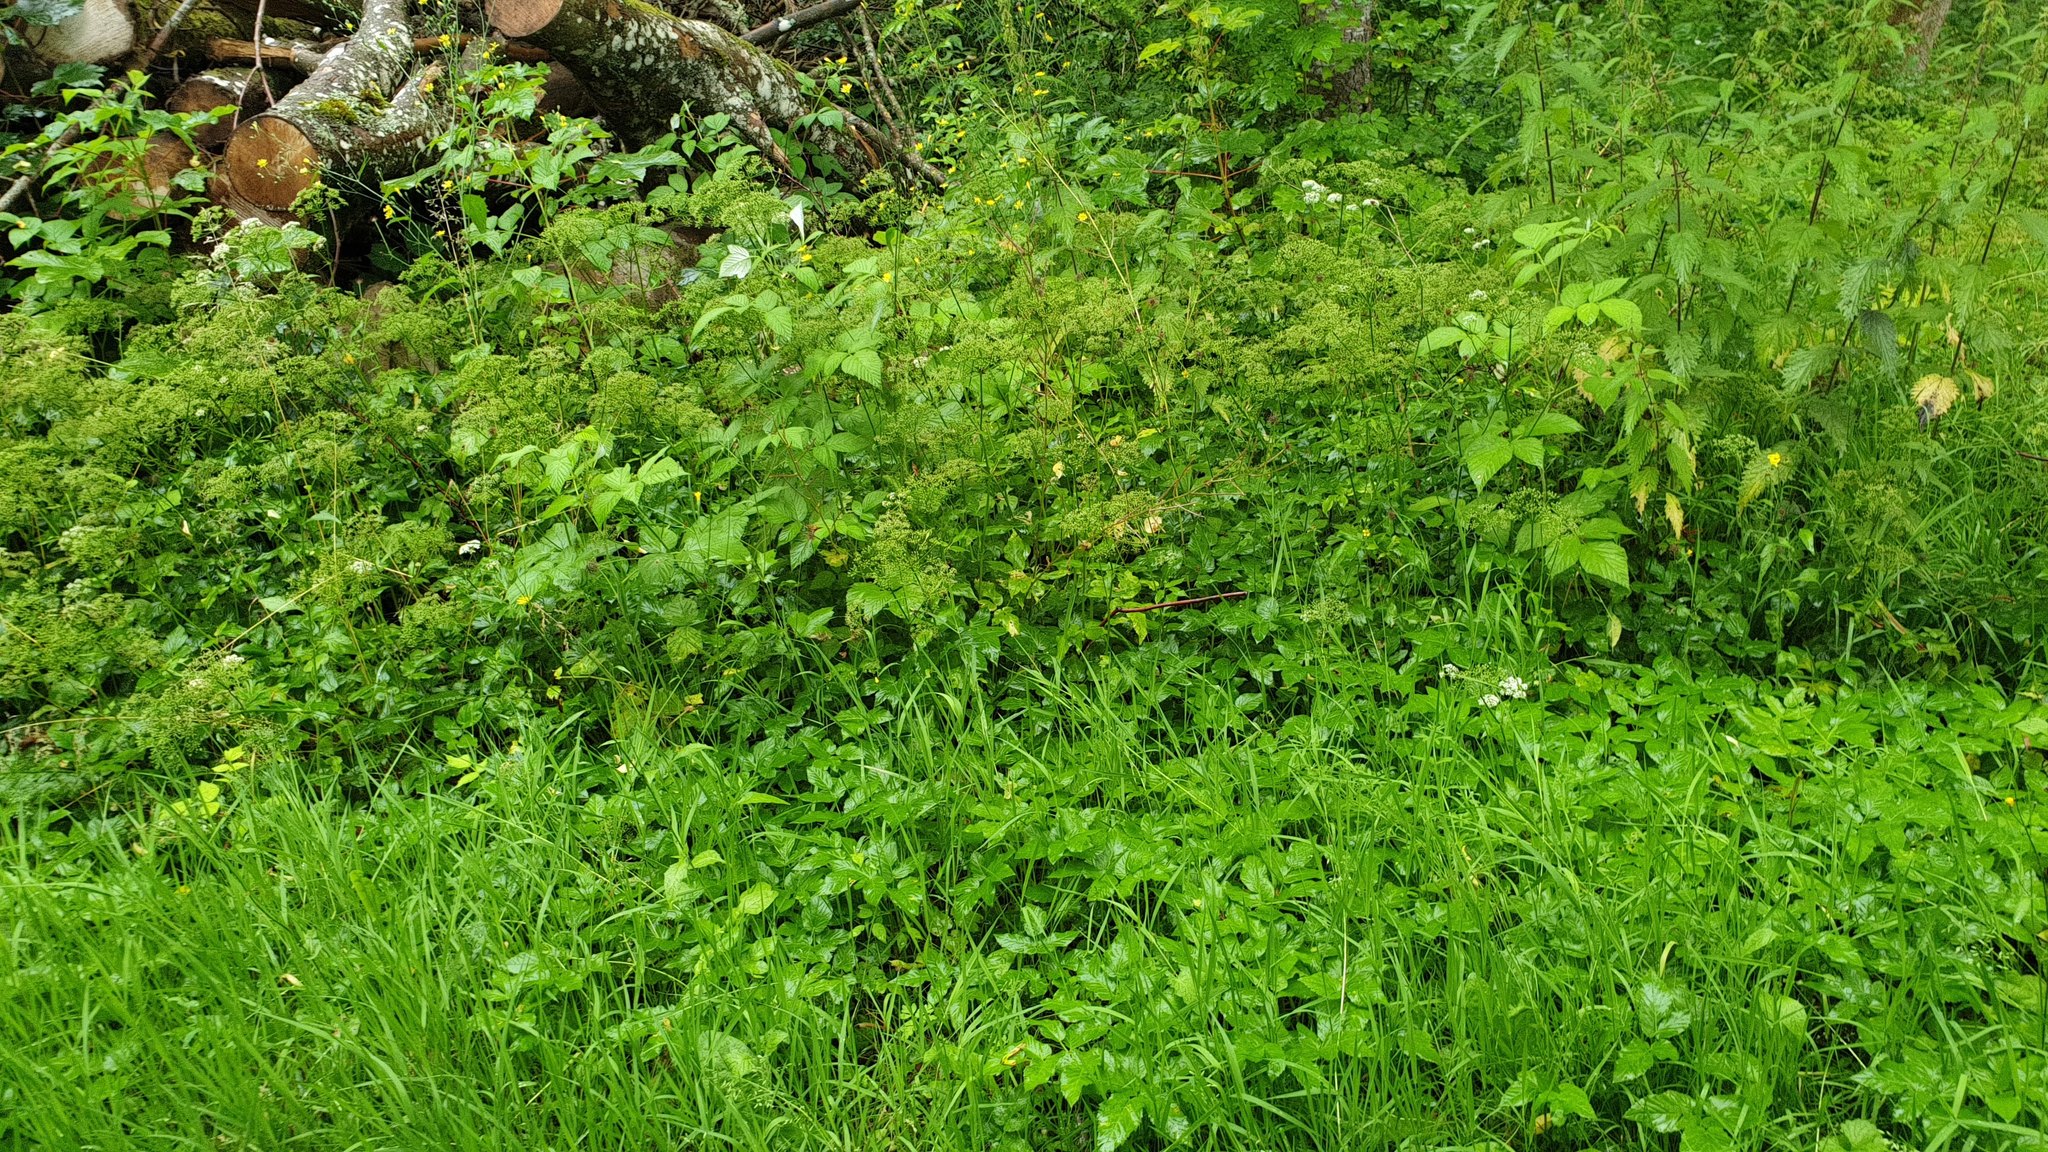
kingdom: Plantae
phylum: Tracheophyta
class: Magnoliopsida
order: Apiales
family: Apiaceae
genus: Aegopodium
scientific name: Aegopodium podagraria
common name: Ground-elder
